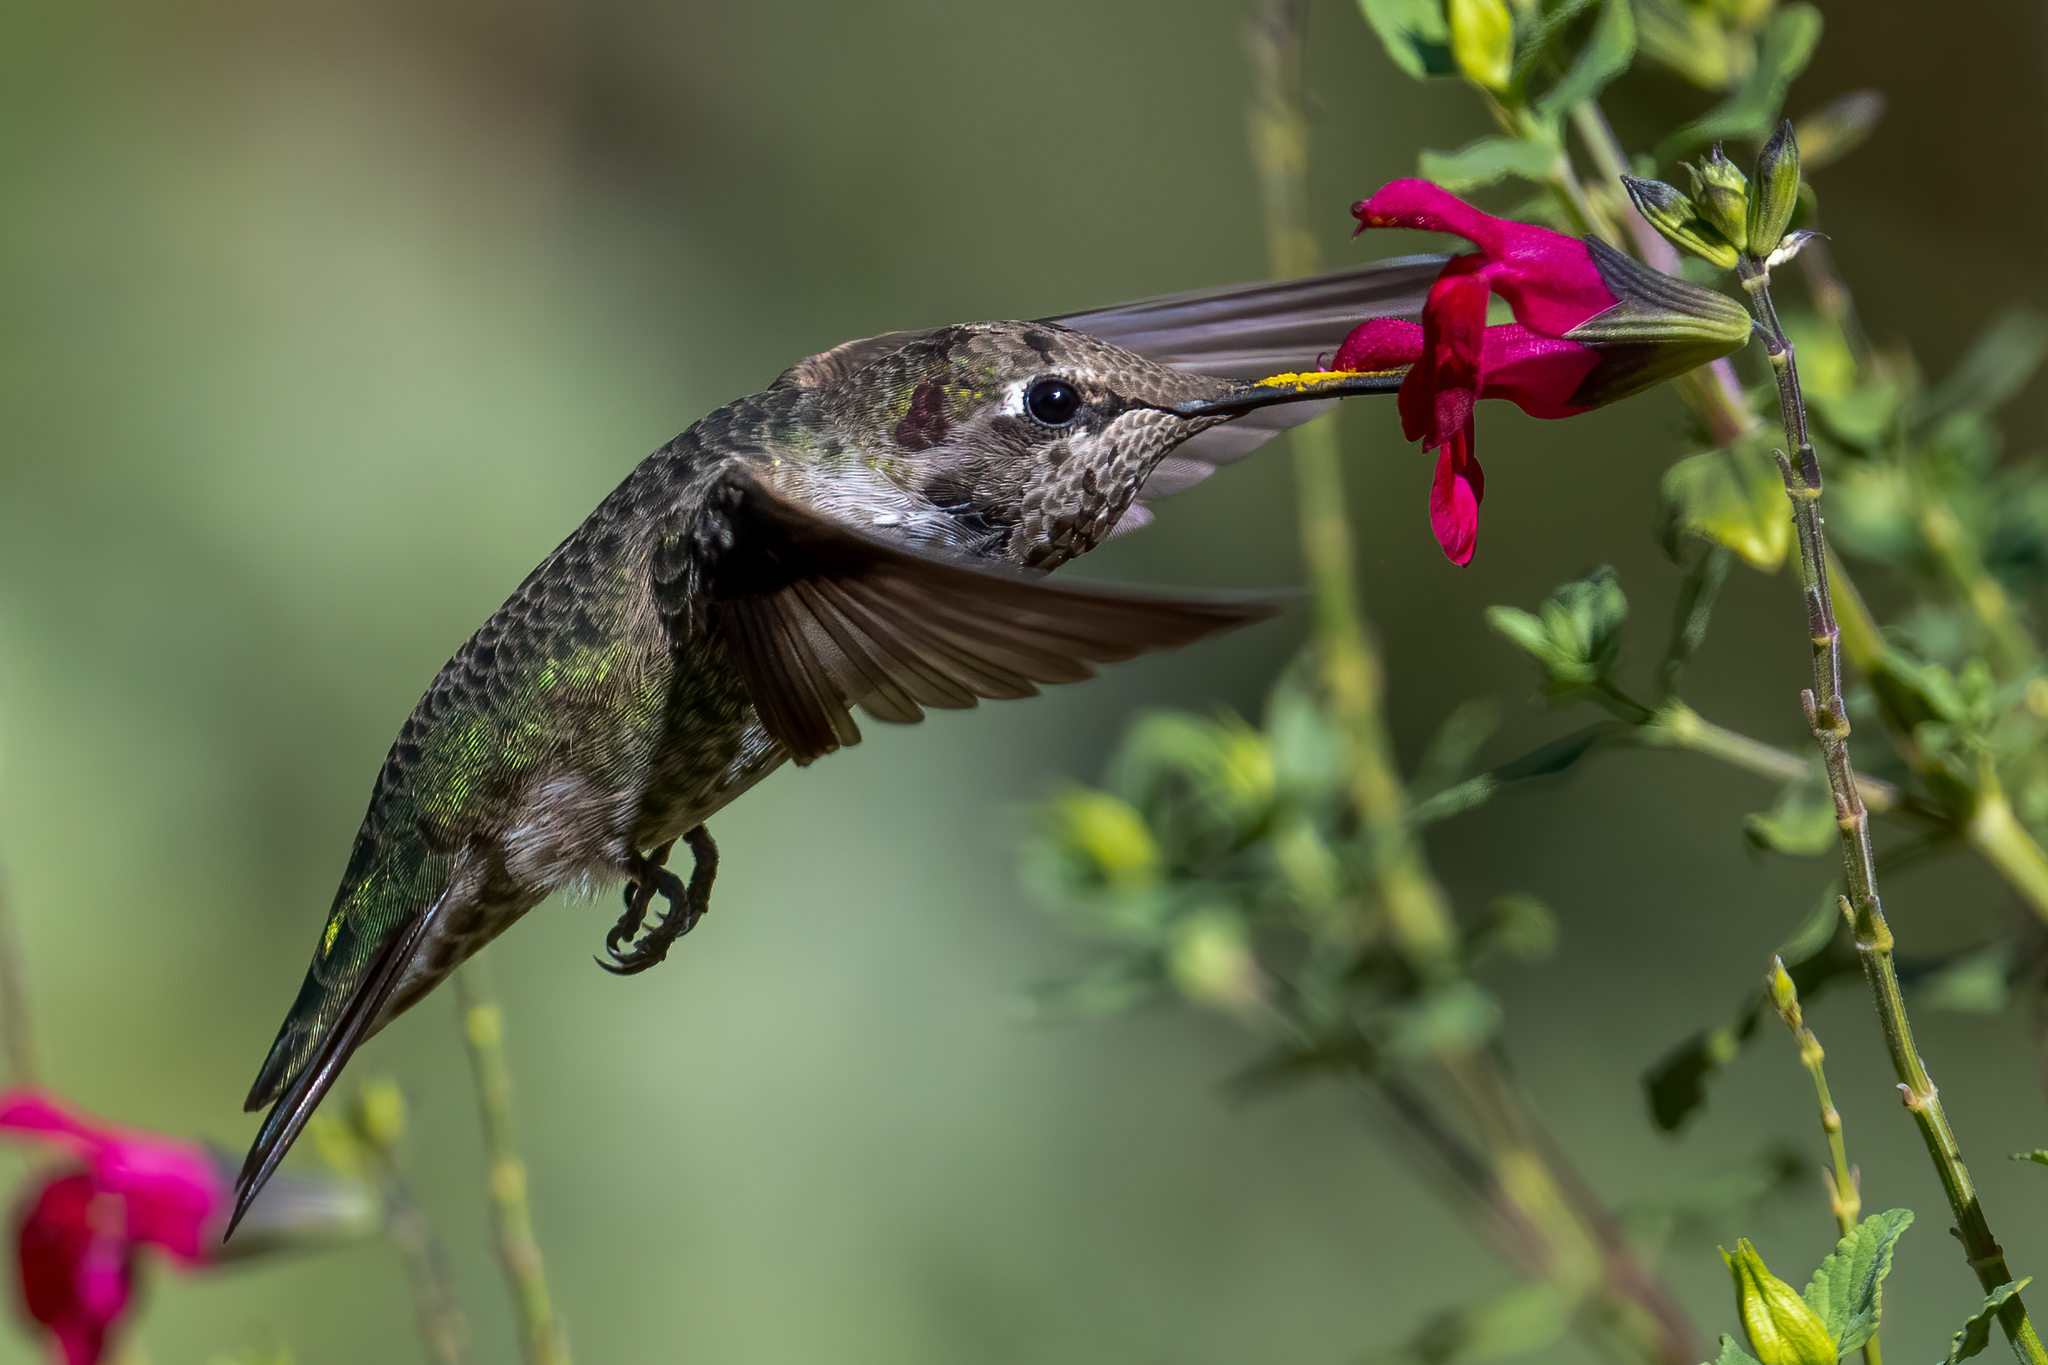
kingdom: Animalia
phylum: Chordata
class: Aves
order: Apodiformes
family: Trochilidae
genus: Calypte
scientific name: Calypte anna
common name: Anna's hummingbird
